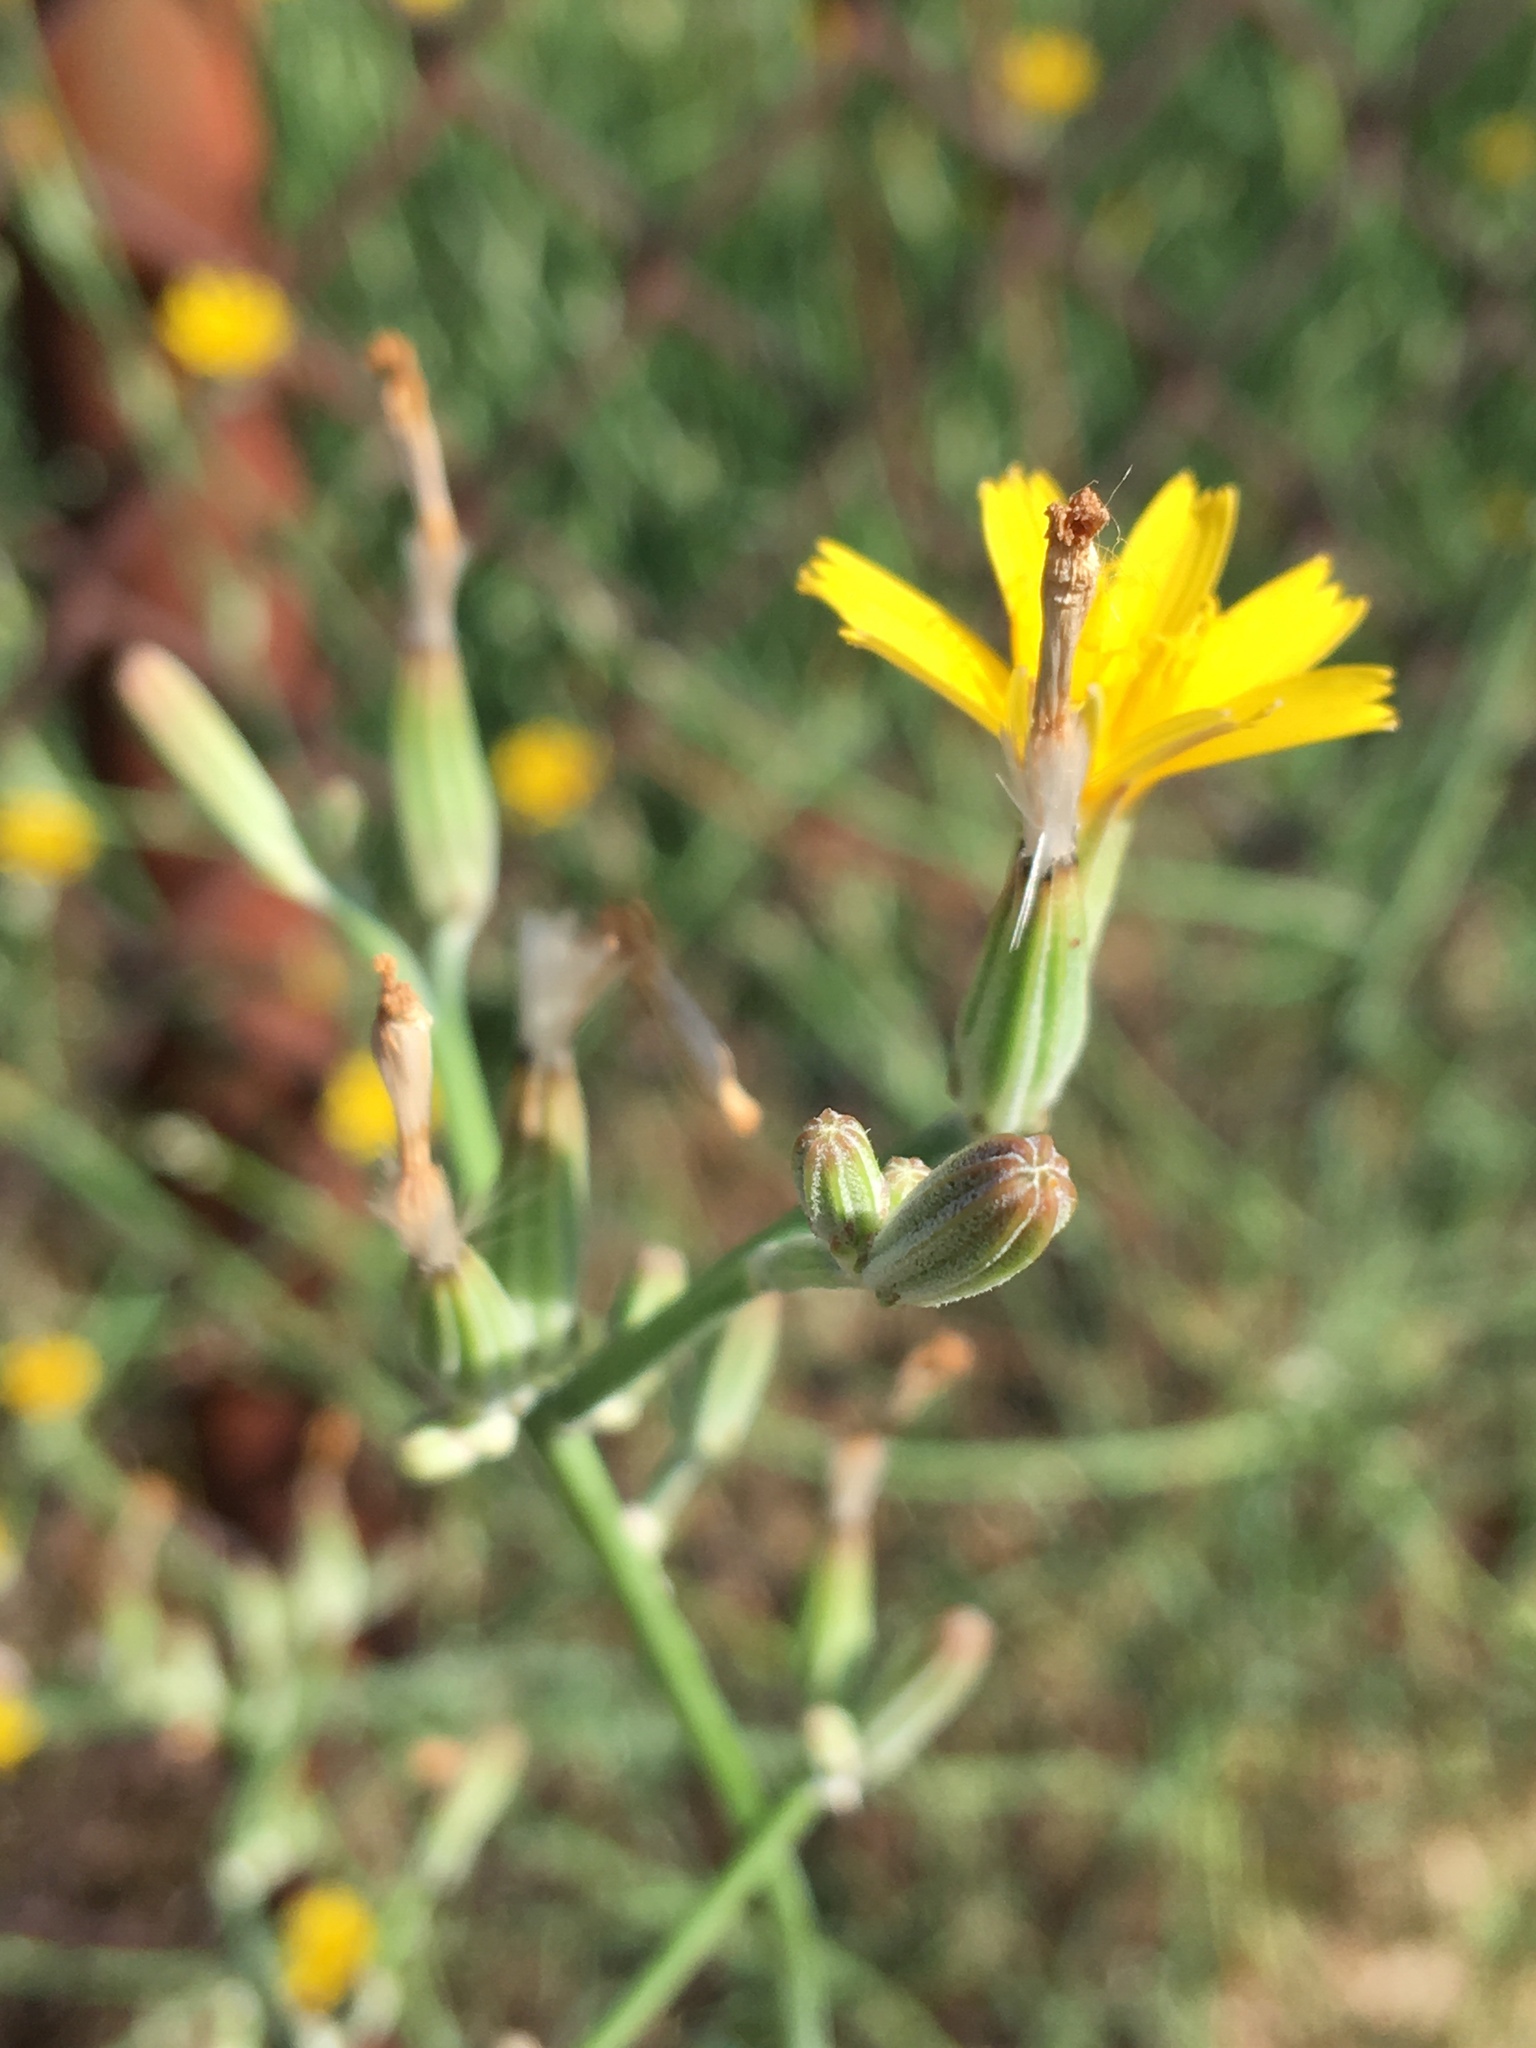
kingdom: Plantae
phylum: Tracheophyta
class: Magnoliopsida
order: Asterales
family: Asteraceae
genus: Chondrilla
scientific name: Chondrilla juncea
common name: Skeleton weed
